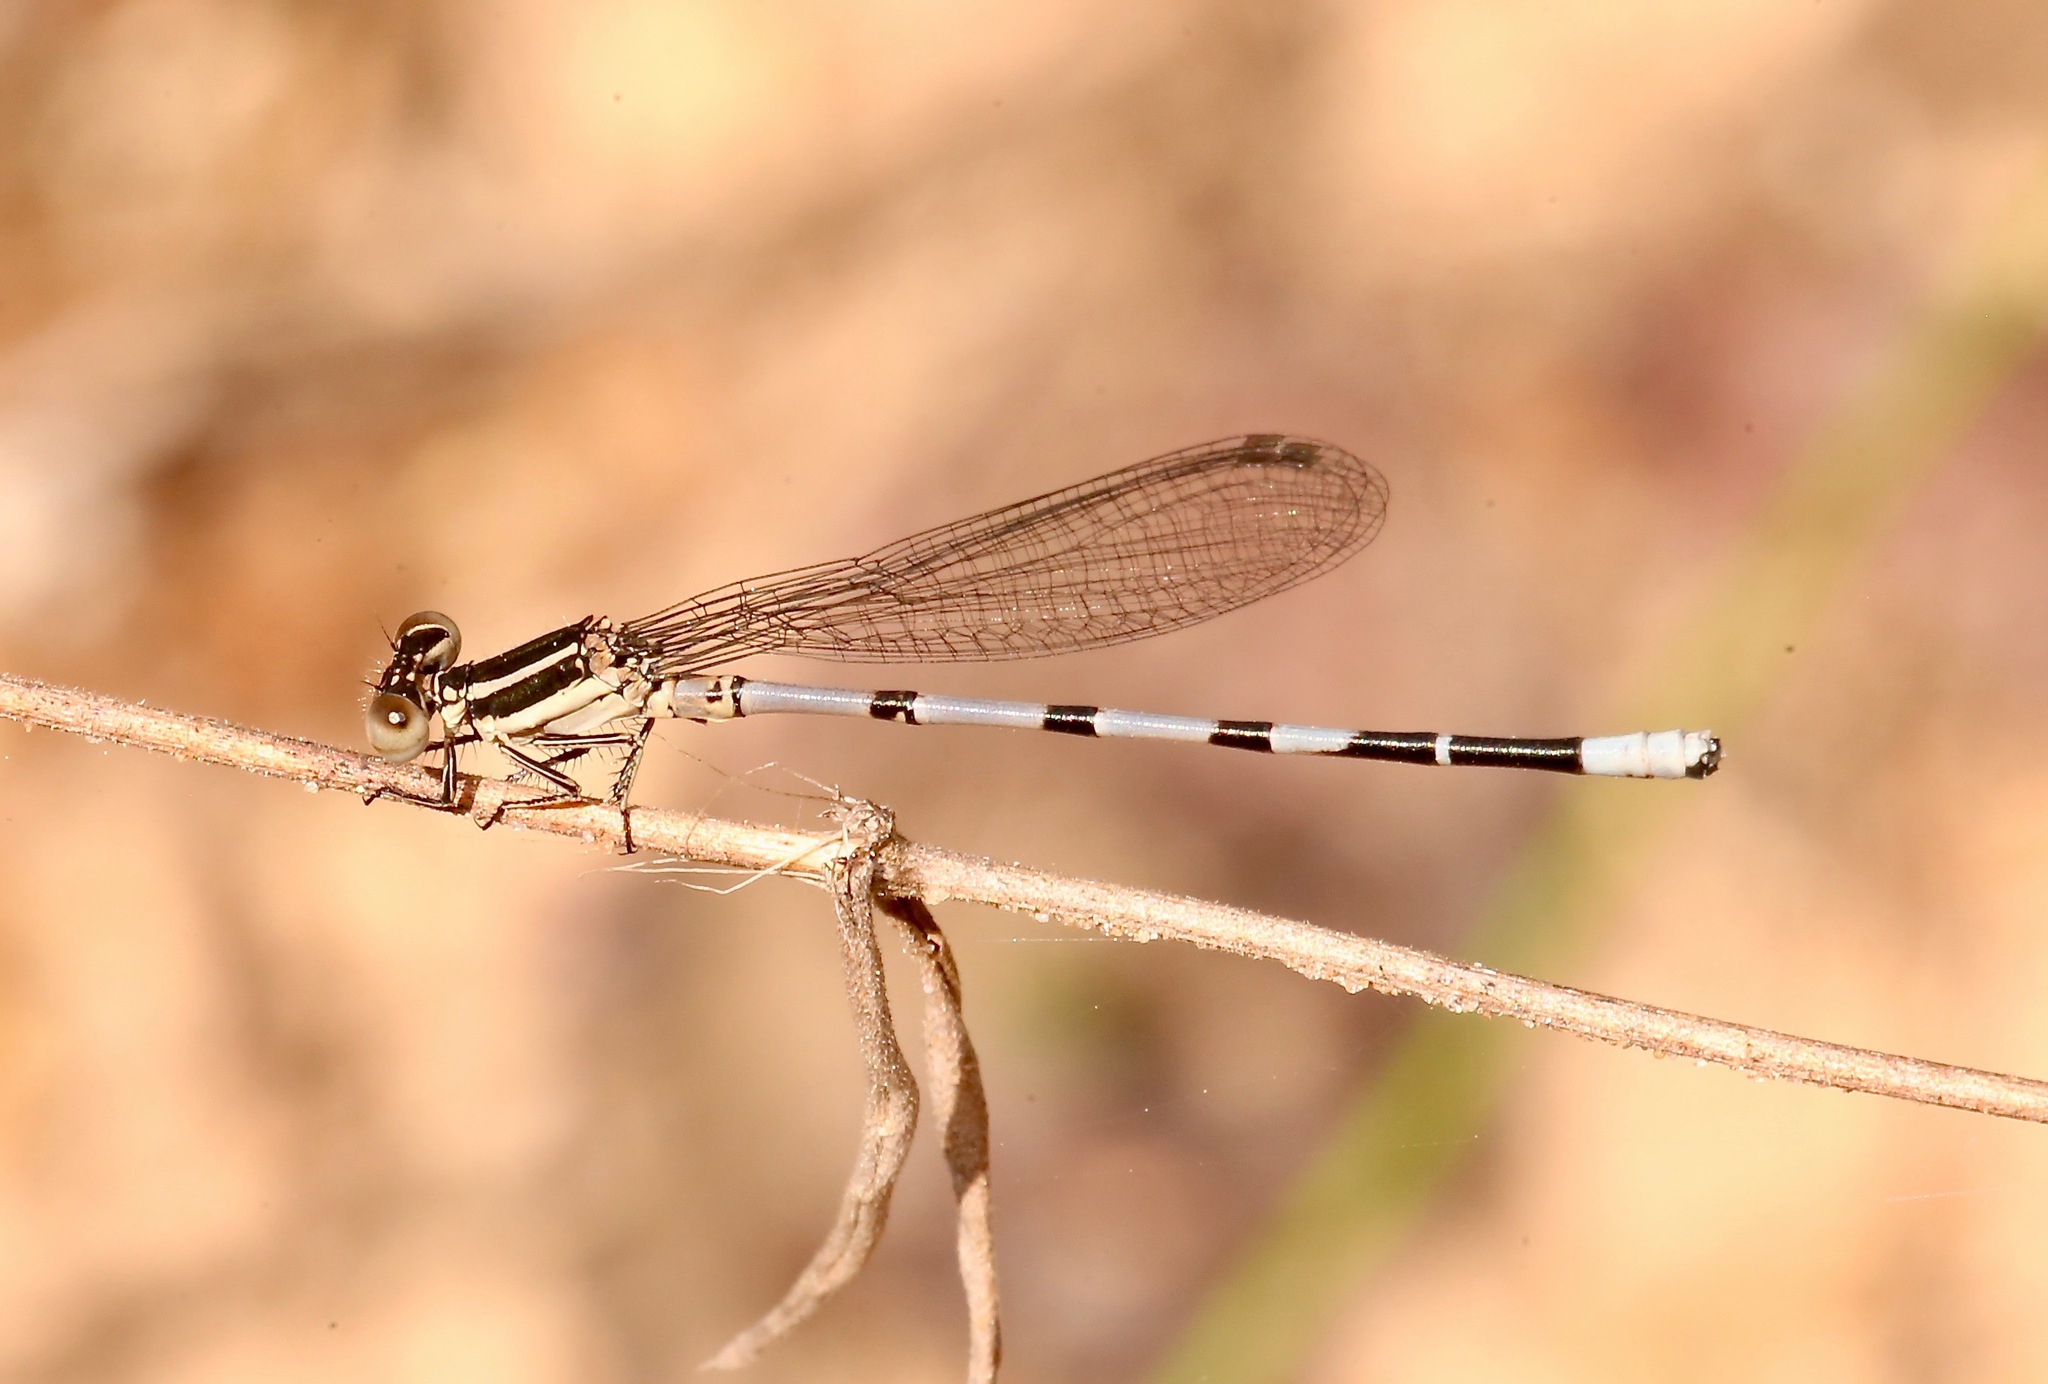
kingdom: Animalia
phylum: Arthropoda
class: Insecta
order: Odonata
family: Coenagrionidae
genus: Argia
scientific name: Argia bipunctulata
